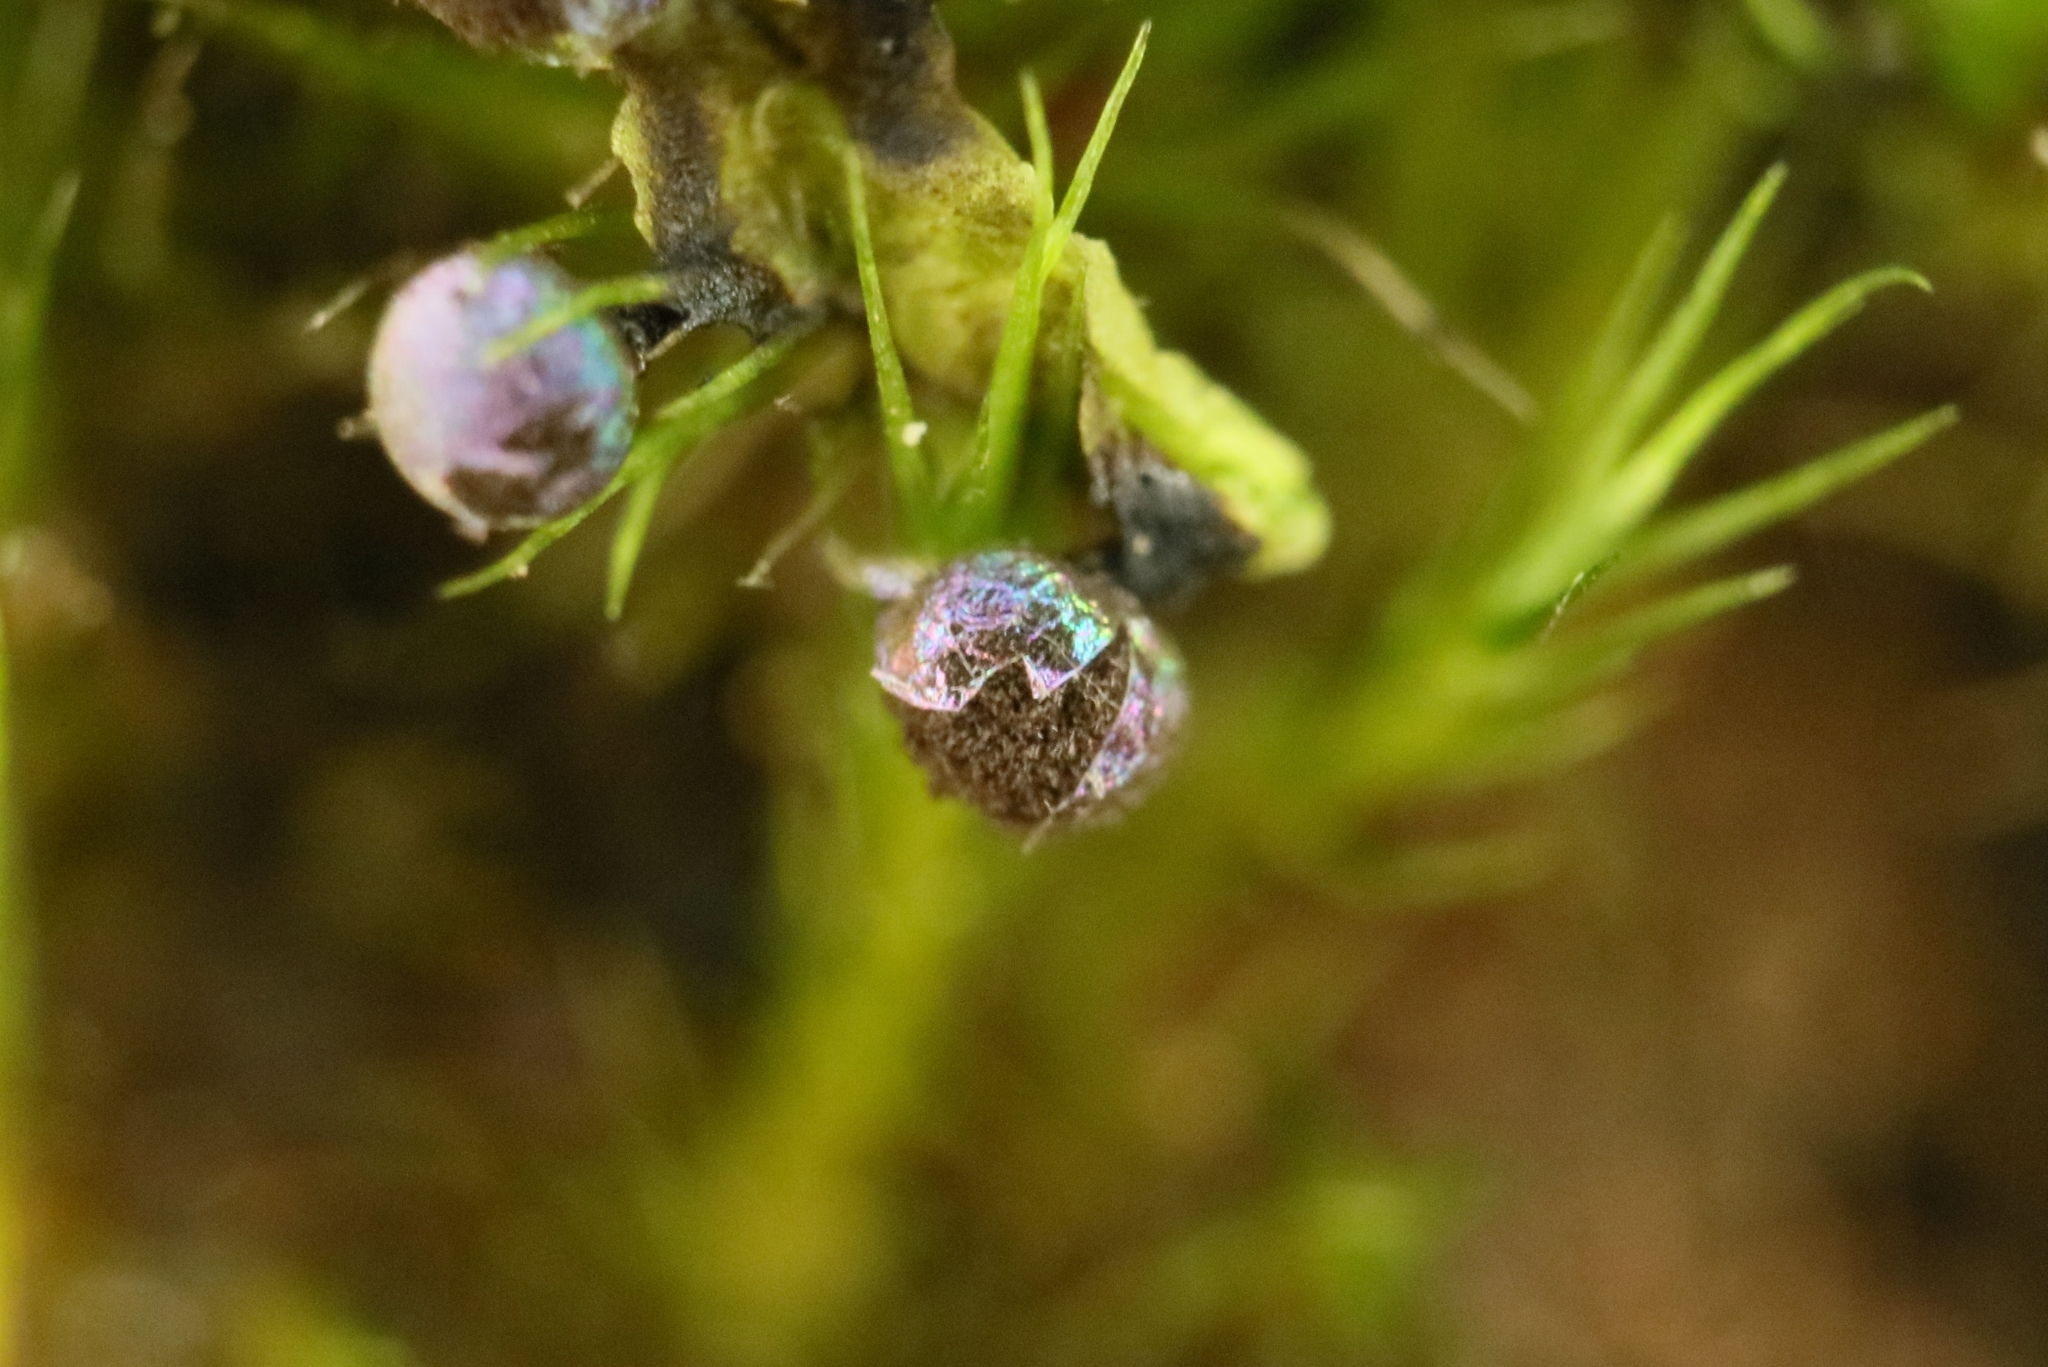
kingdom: Protozoa
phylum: Mycetozoa
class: Myxomycetes
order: Physarales
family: Elaeomyxaceae
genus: Elaeomyxa
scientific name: Elaeomyxa cerifera
